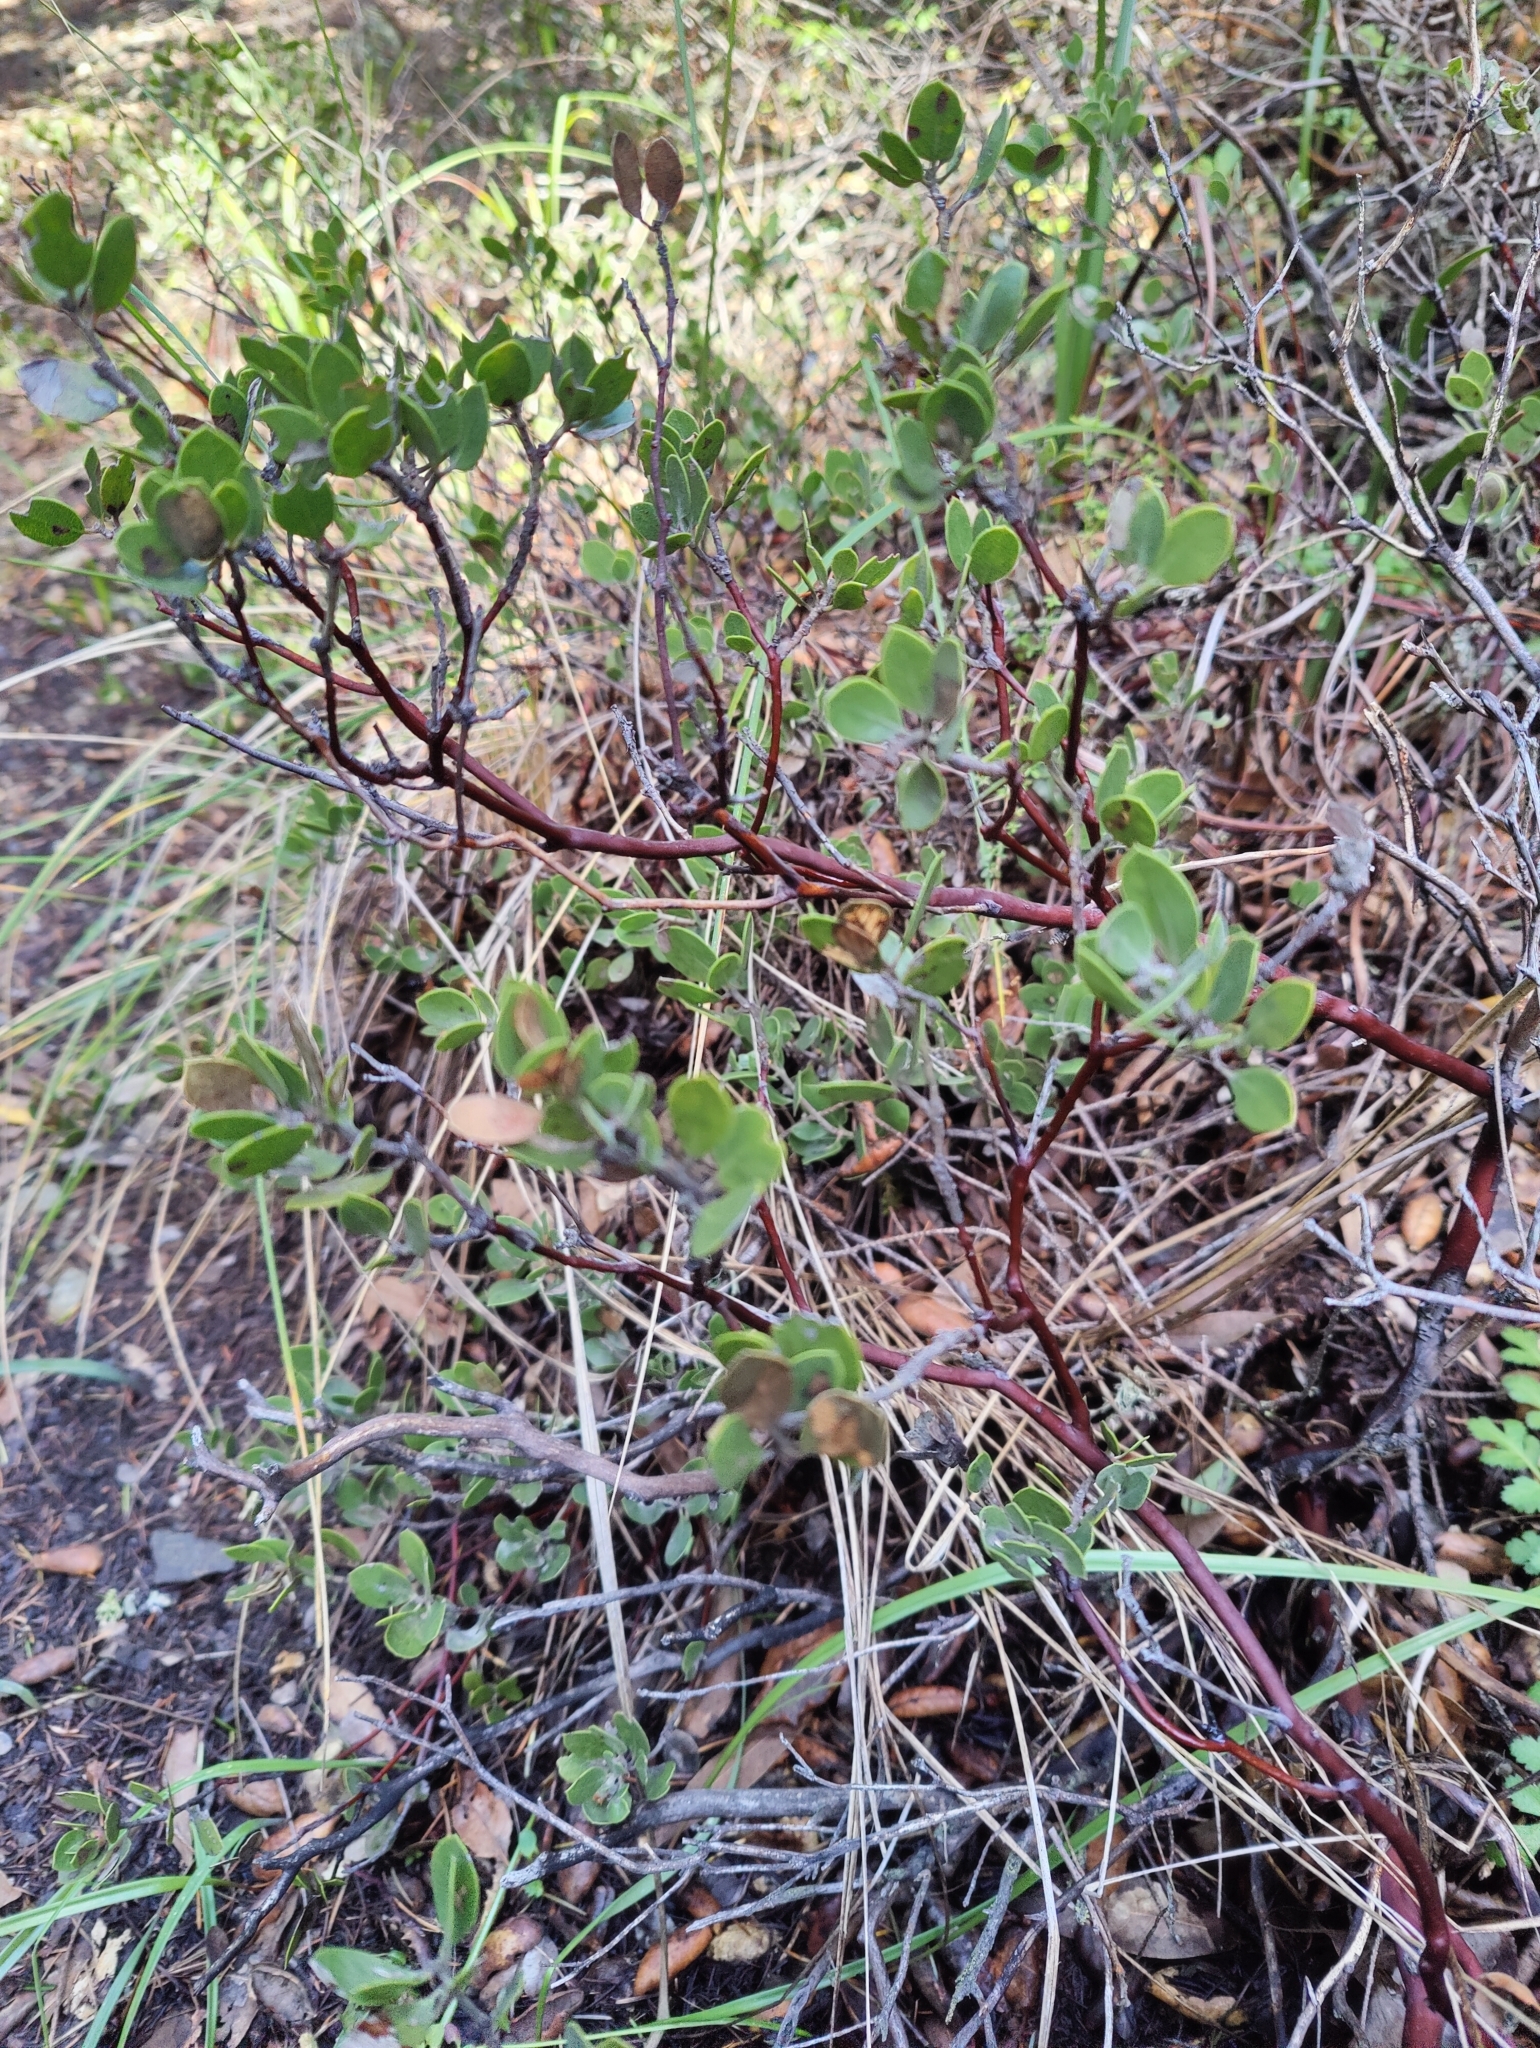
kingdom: Plantae
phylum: Tracheophyta
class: Magnoliopsida
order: Ericales
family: Ericaceae
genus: Arctostaphylos
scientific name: Arctostaphylos montana
